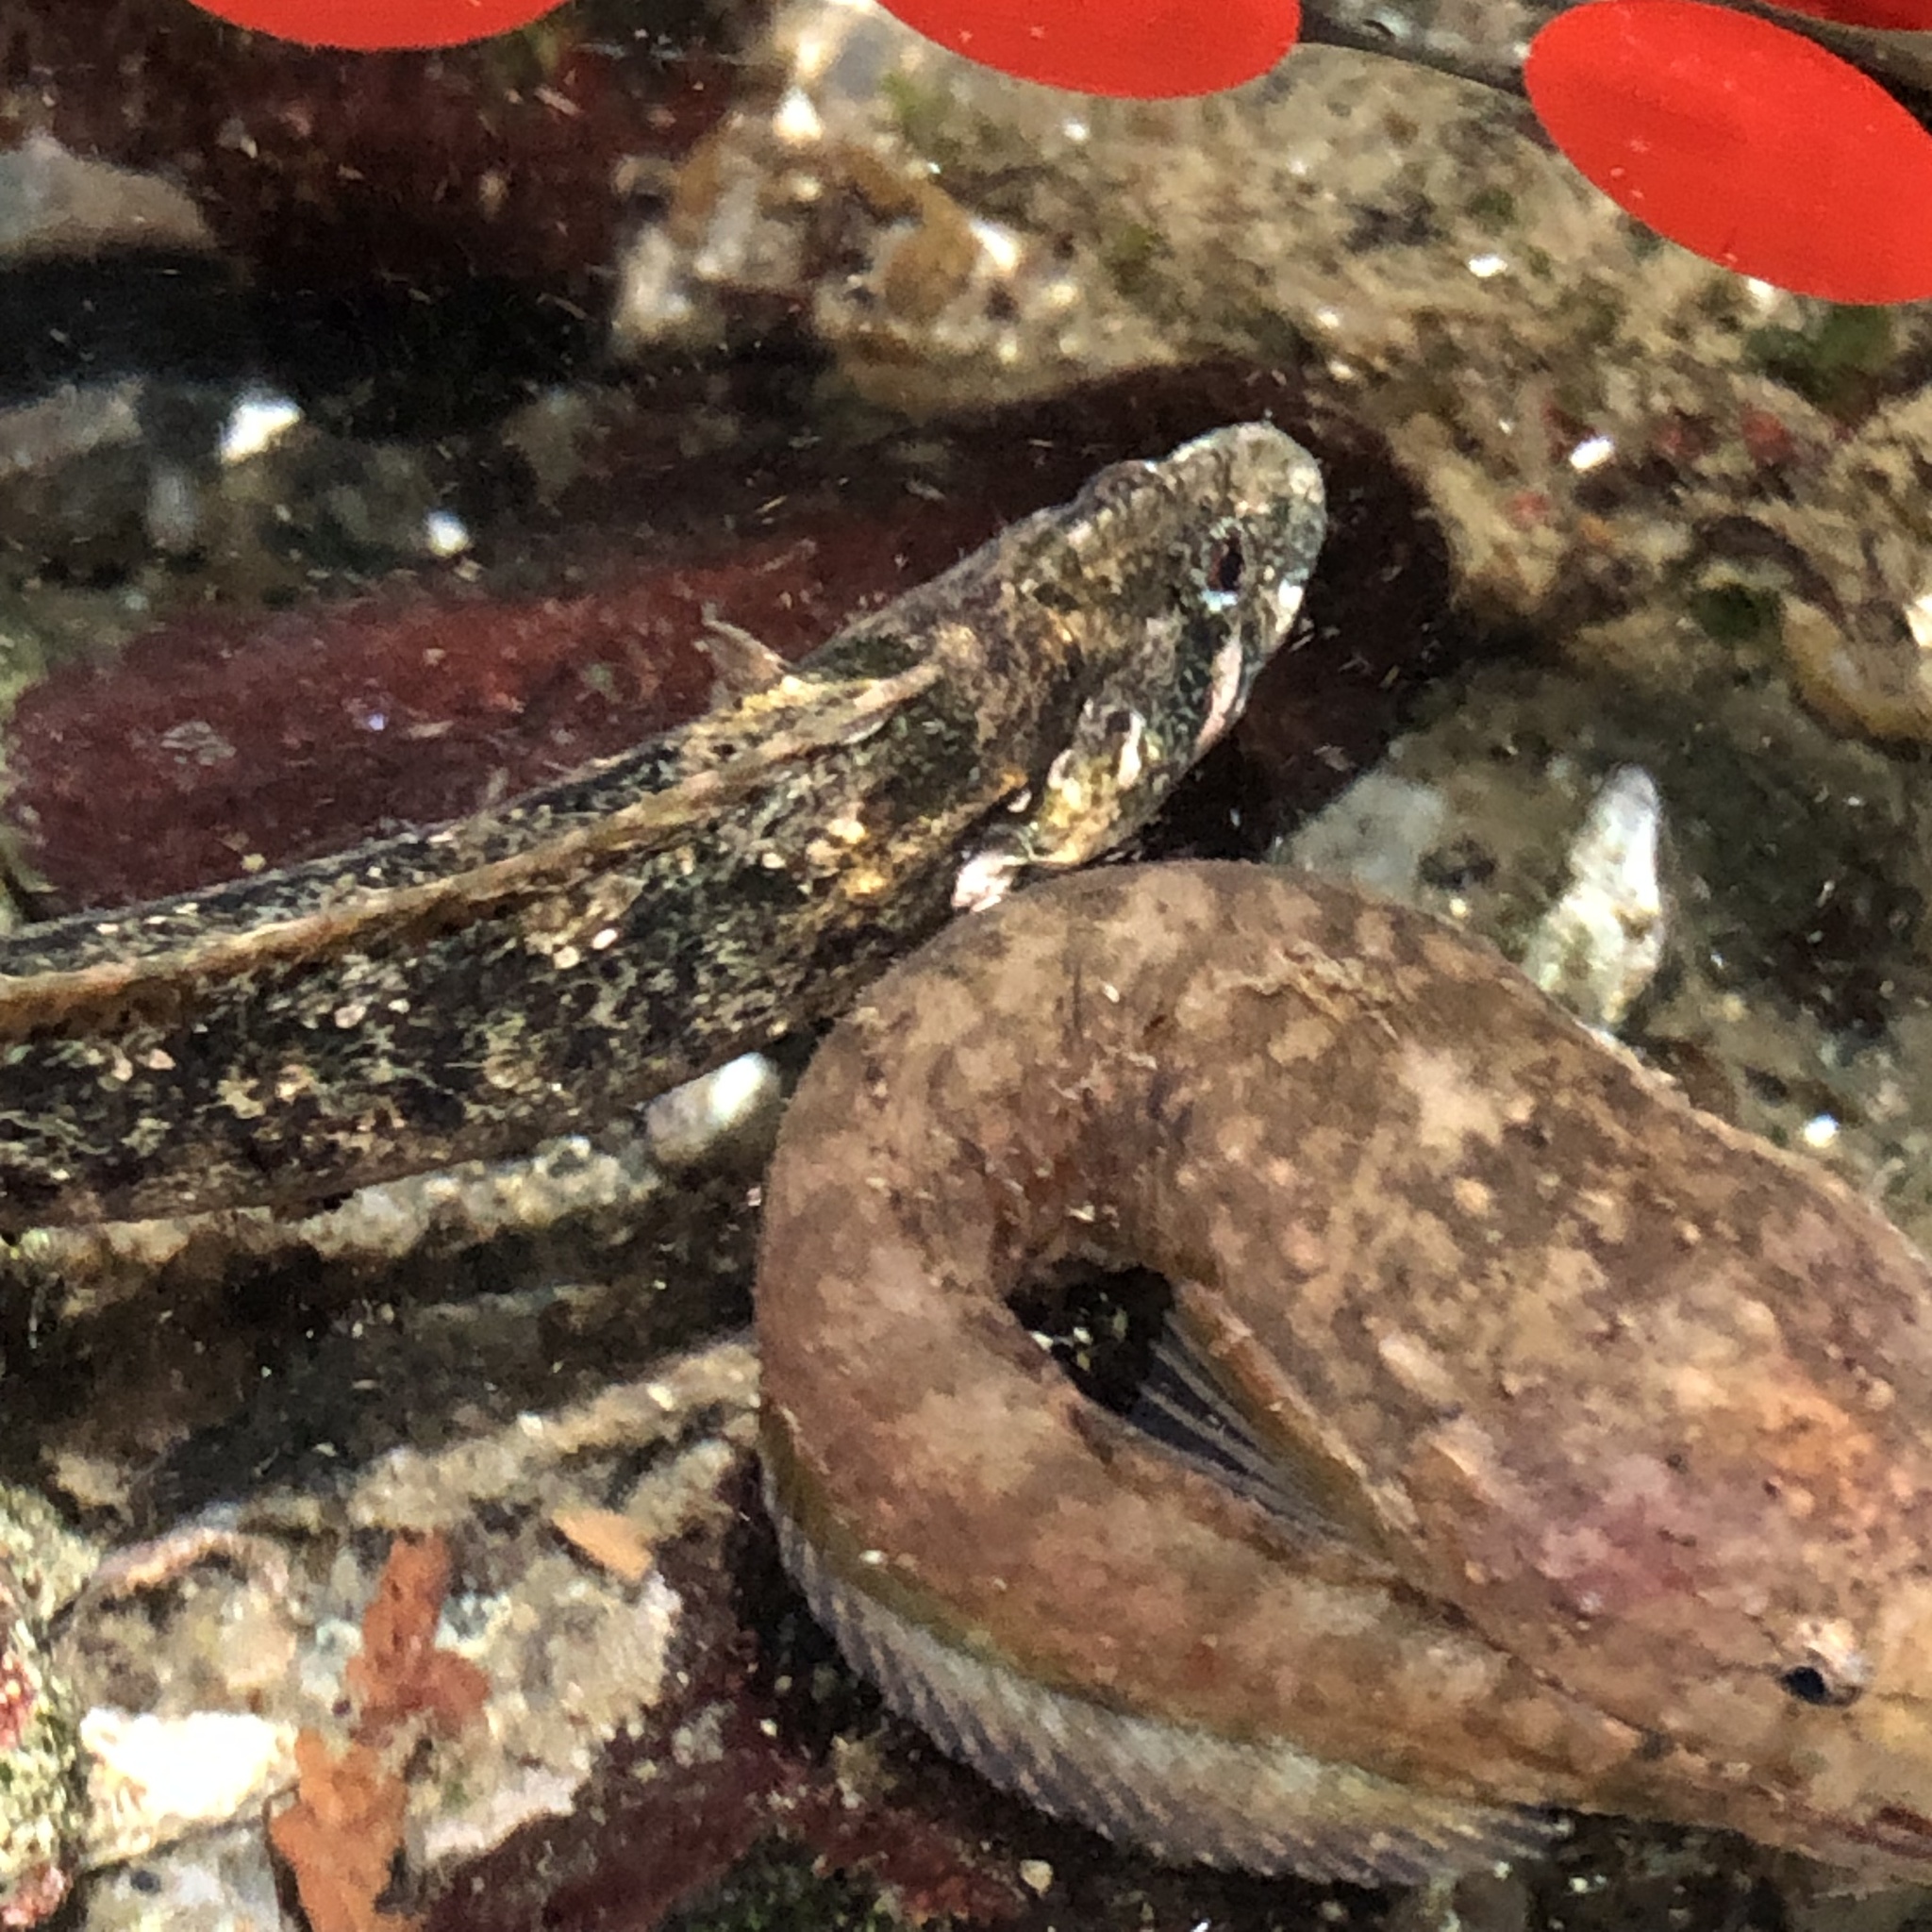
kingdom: Animalia
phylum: Chordata
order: Perciformes
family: Stichaeidae
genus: Anoplarchus
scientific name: Anoplarchus purpurescens
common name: High cockscomb
